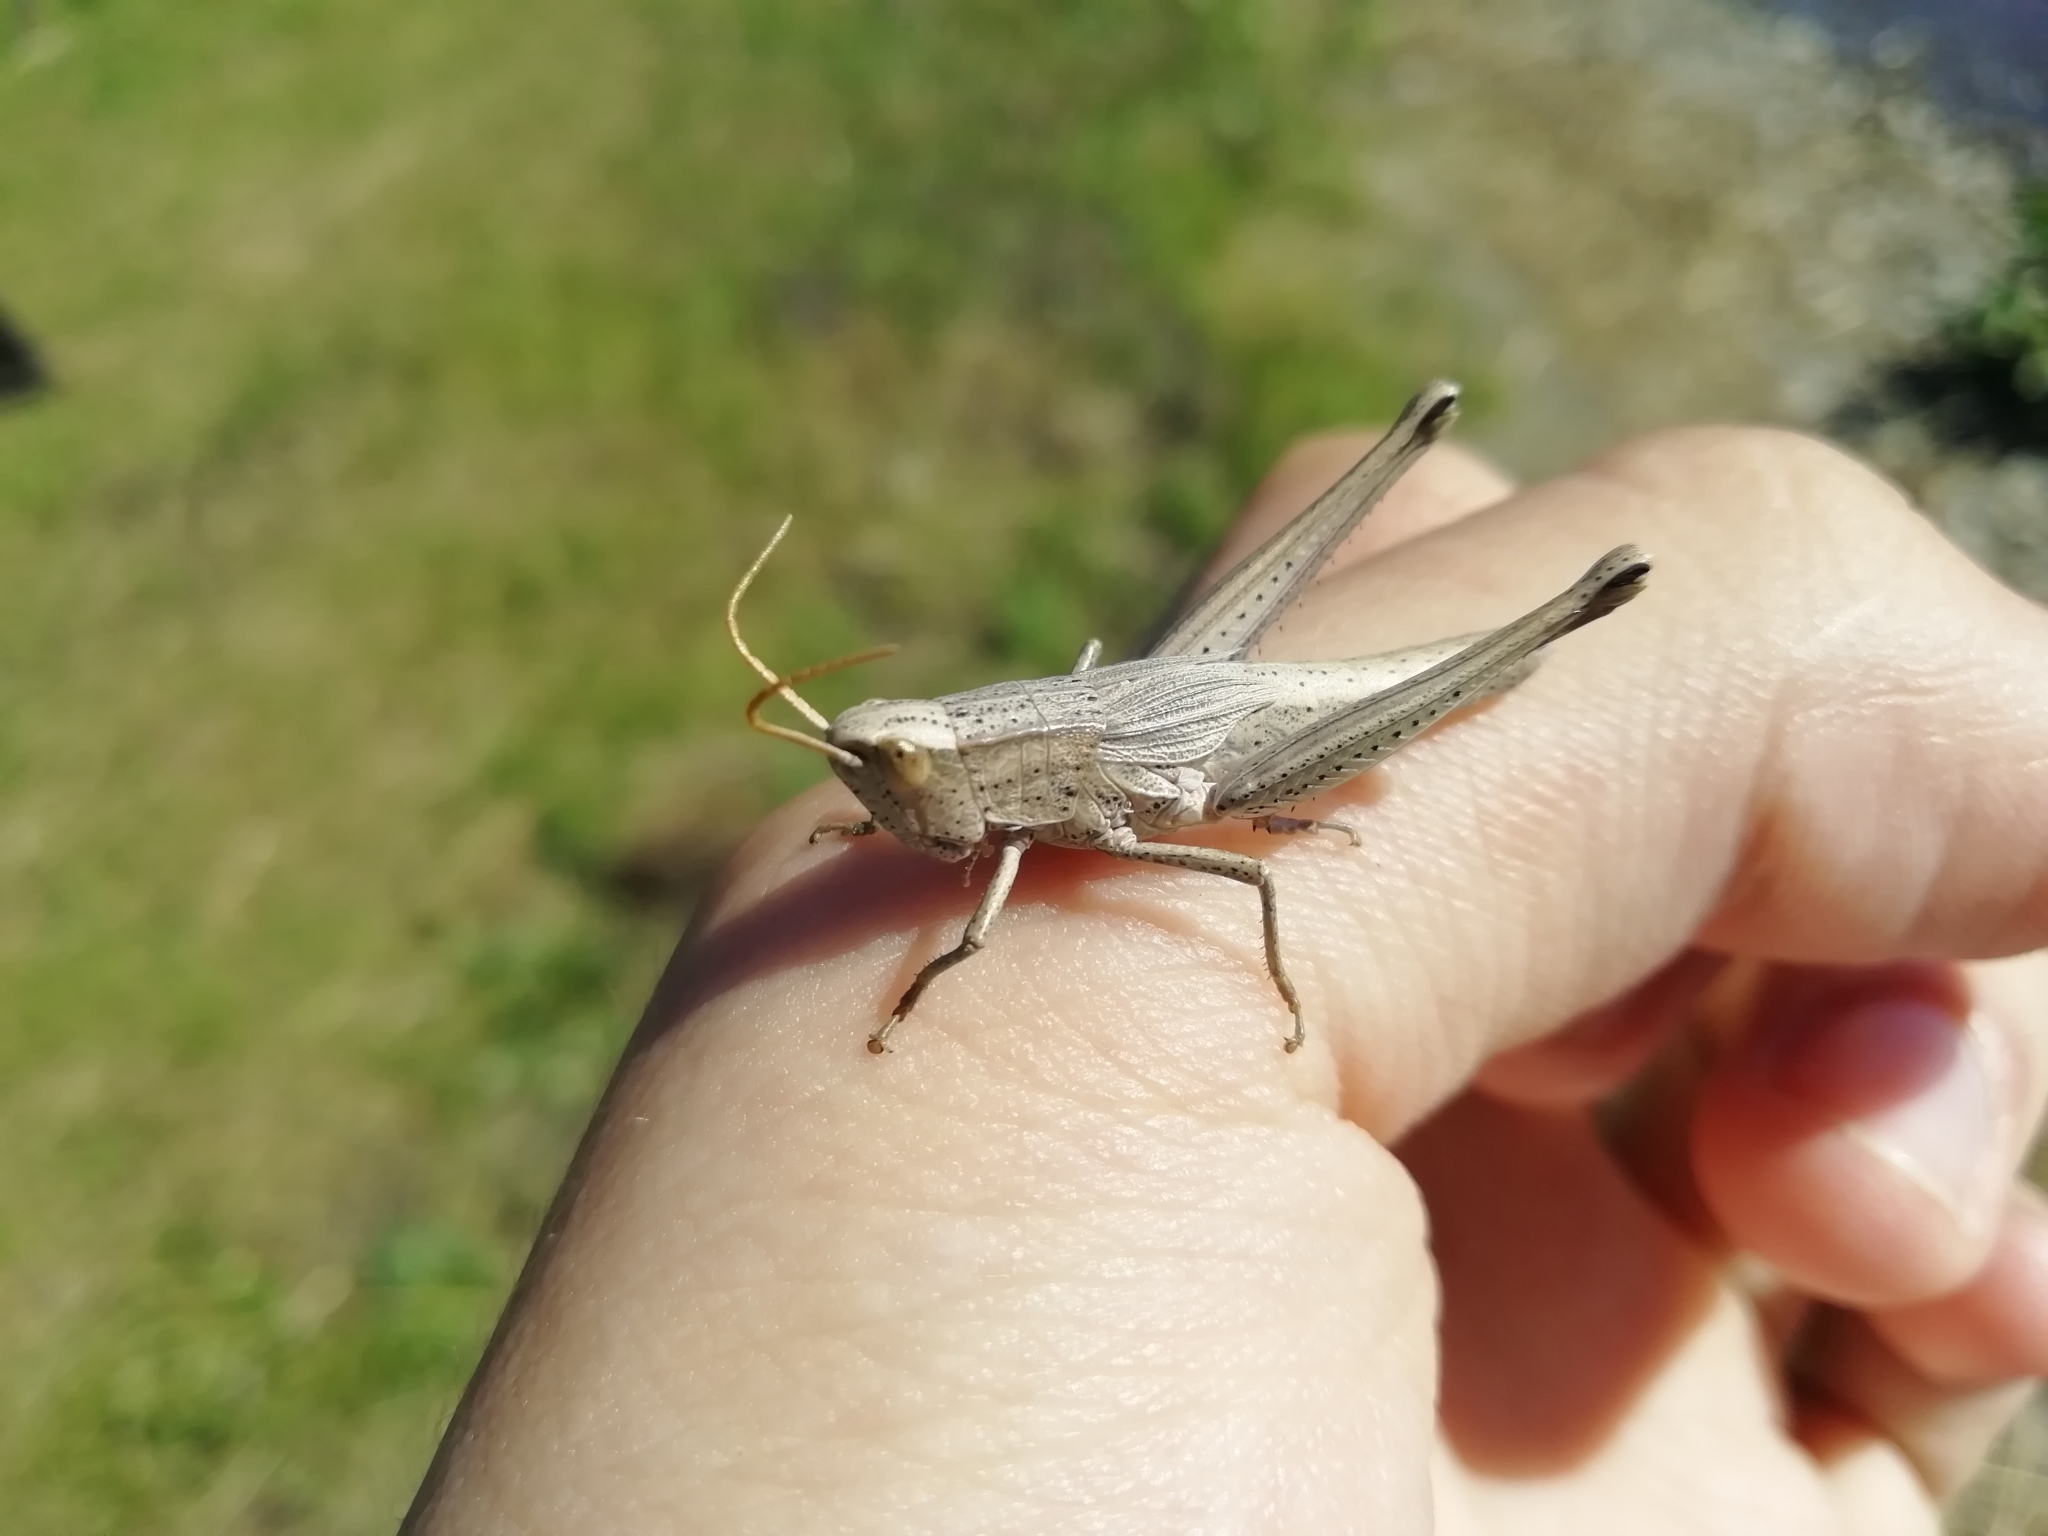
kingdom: Animalia
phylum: Arthropoda
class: Insecta
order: Orthoptera
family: Acrididae
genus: Chrysochraon
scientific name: Chrysochraon dispar
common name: Large gold grasshopper
